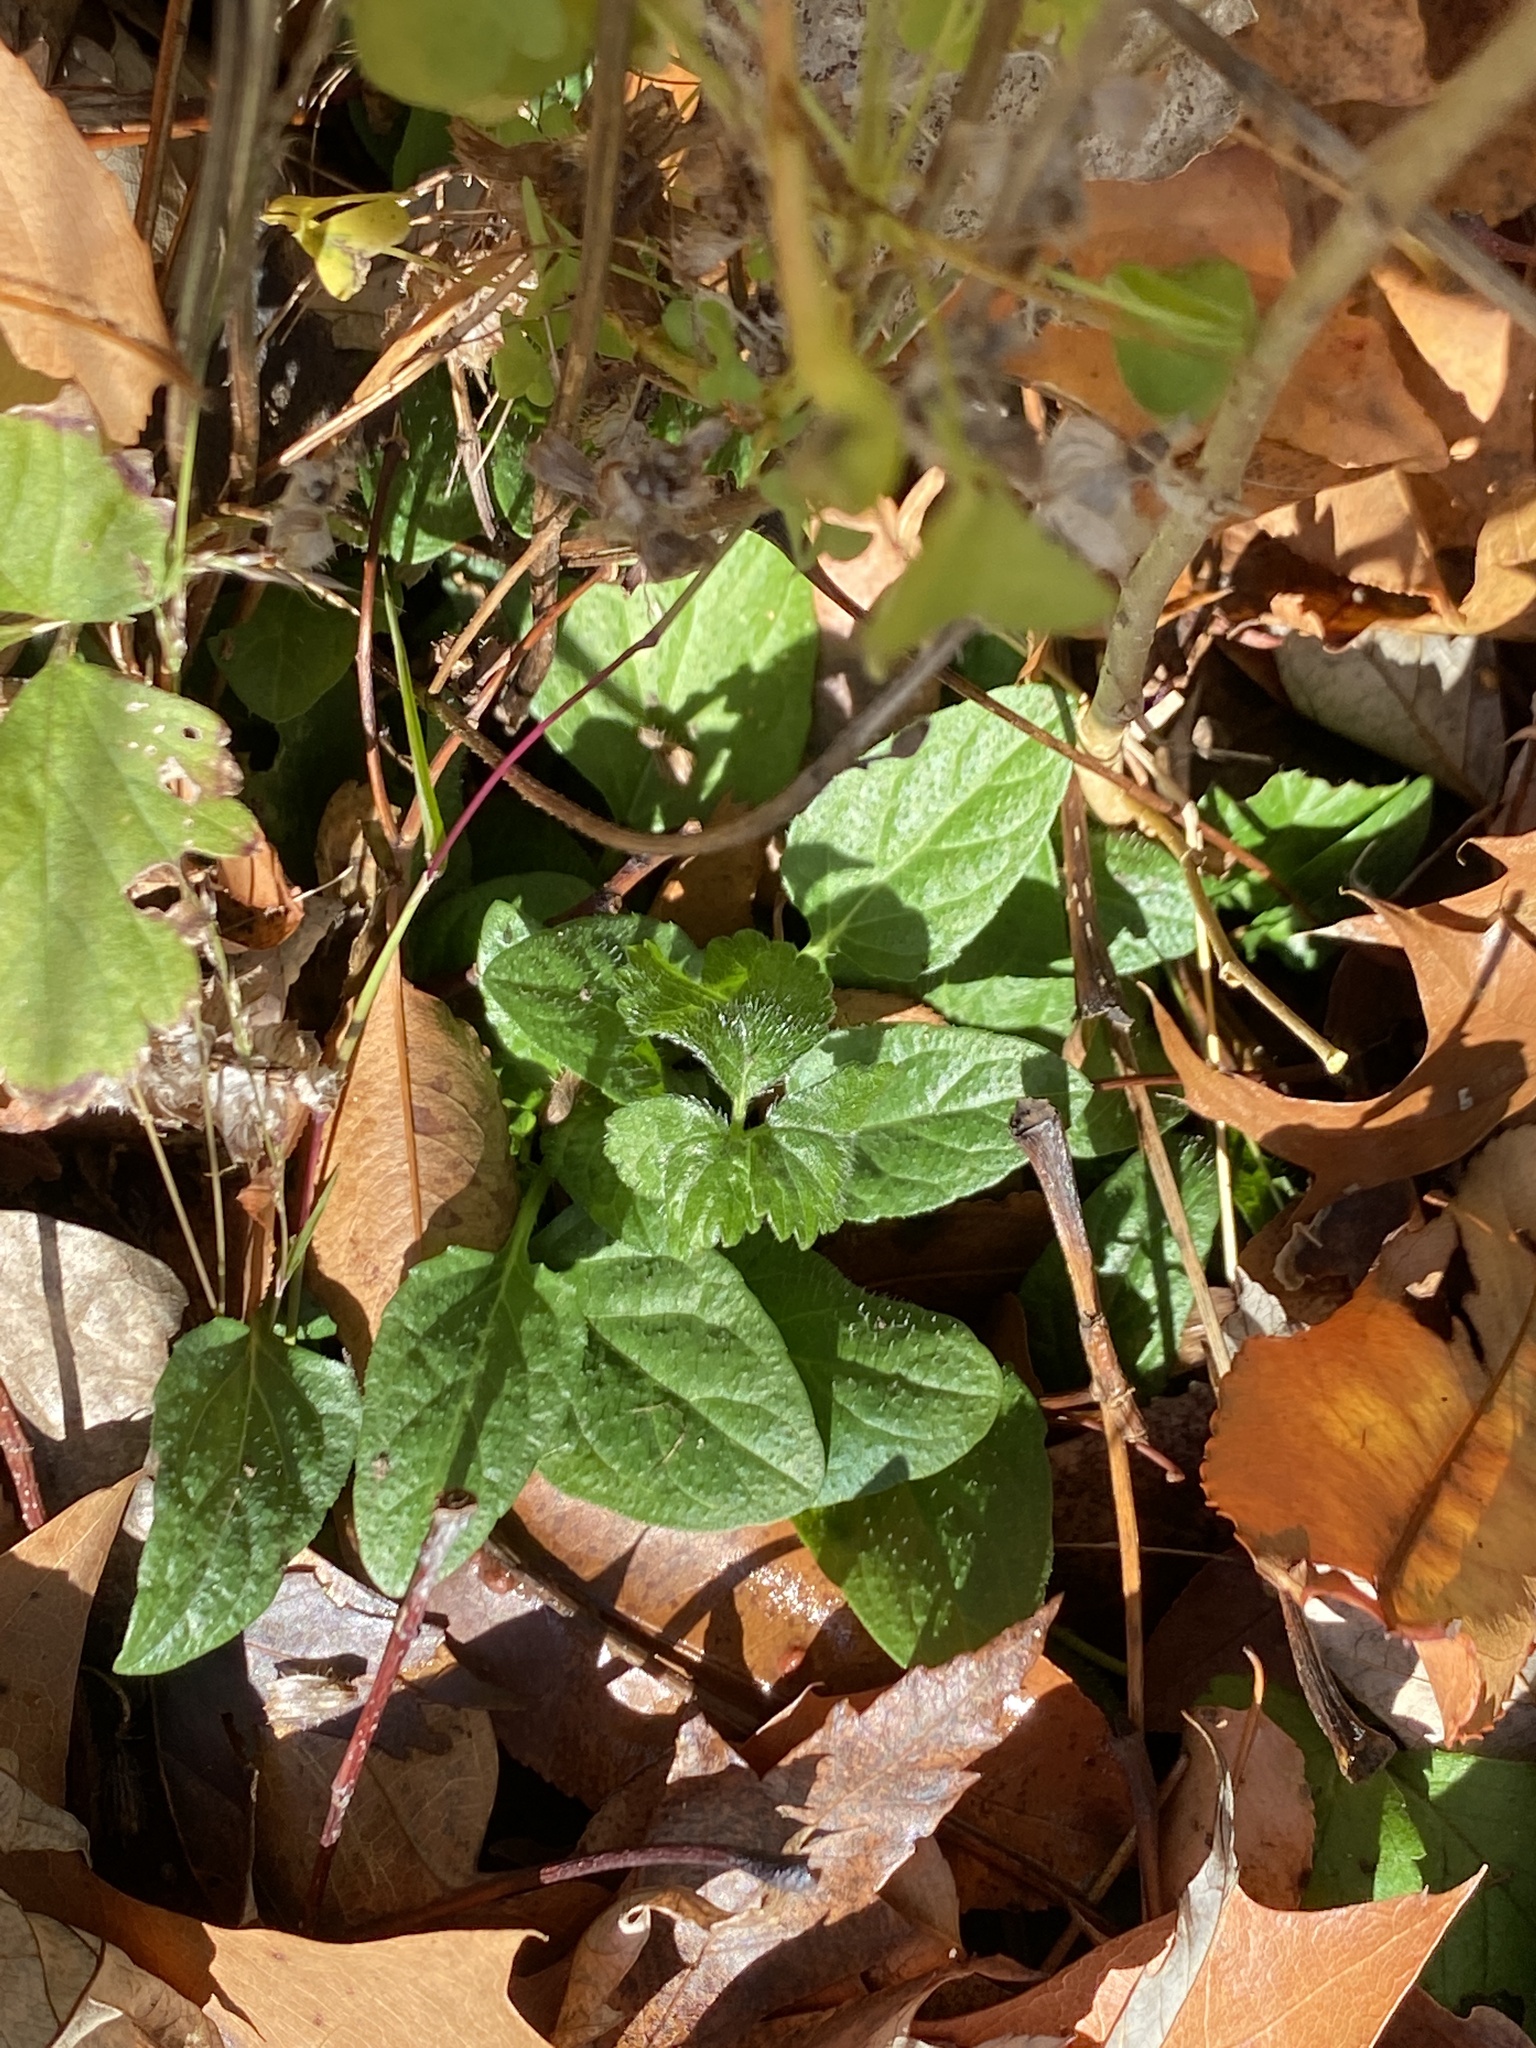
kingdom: Plantae
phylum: Tracheophyta
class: Magnoliopsida
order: Lamiales
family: Lamiaceae
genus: Prunella
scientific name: Prunella vulgaris
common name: Heal-all
